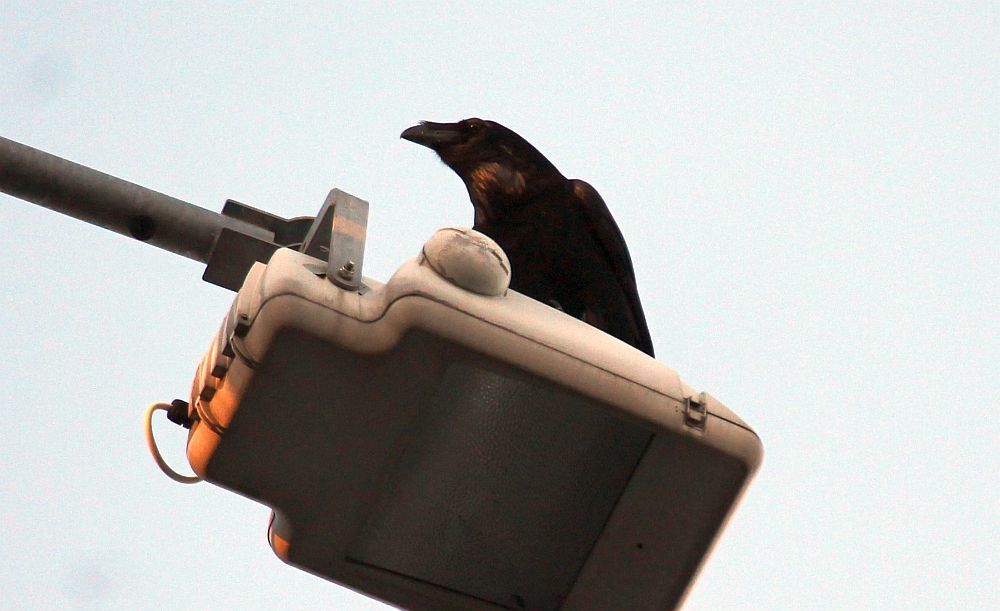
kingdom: Animalia
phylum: Chordata
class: Aves
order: Passeriformes
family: Corvidae
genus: Corvus
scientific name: Corvus corax
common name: Common raven
